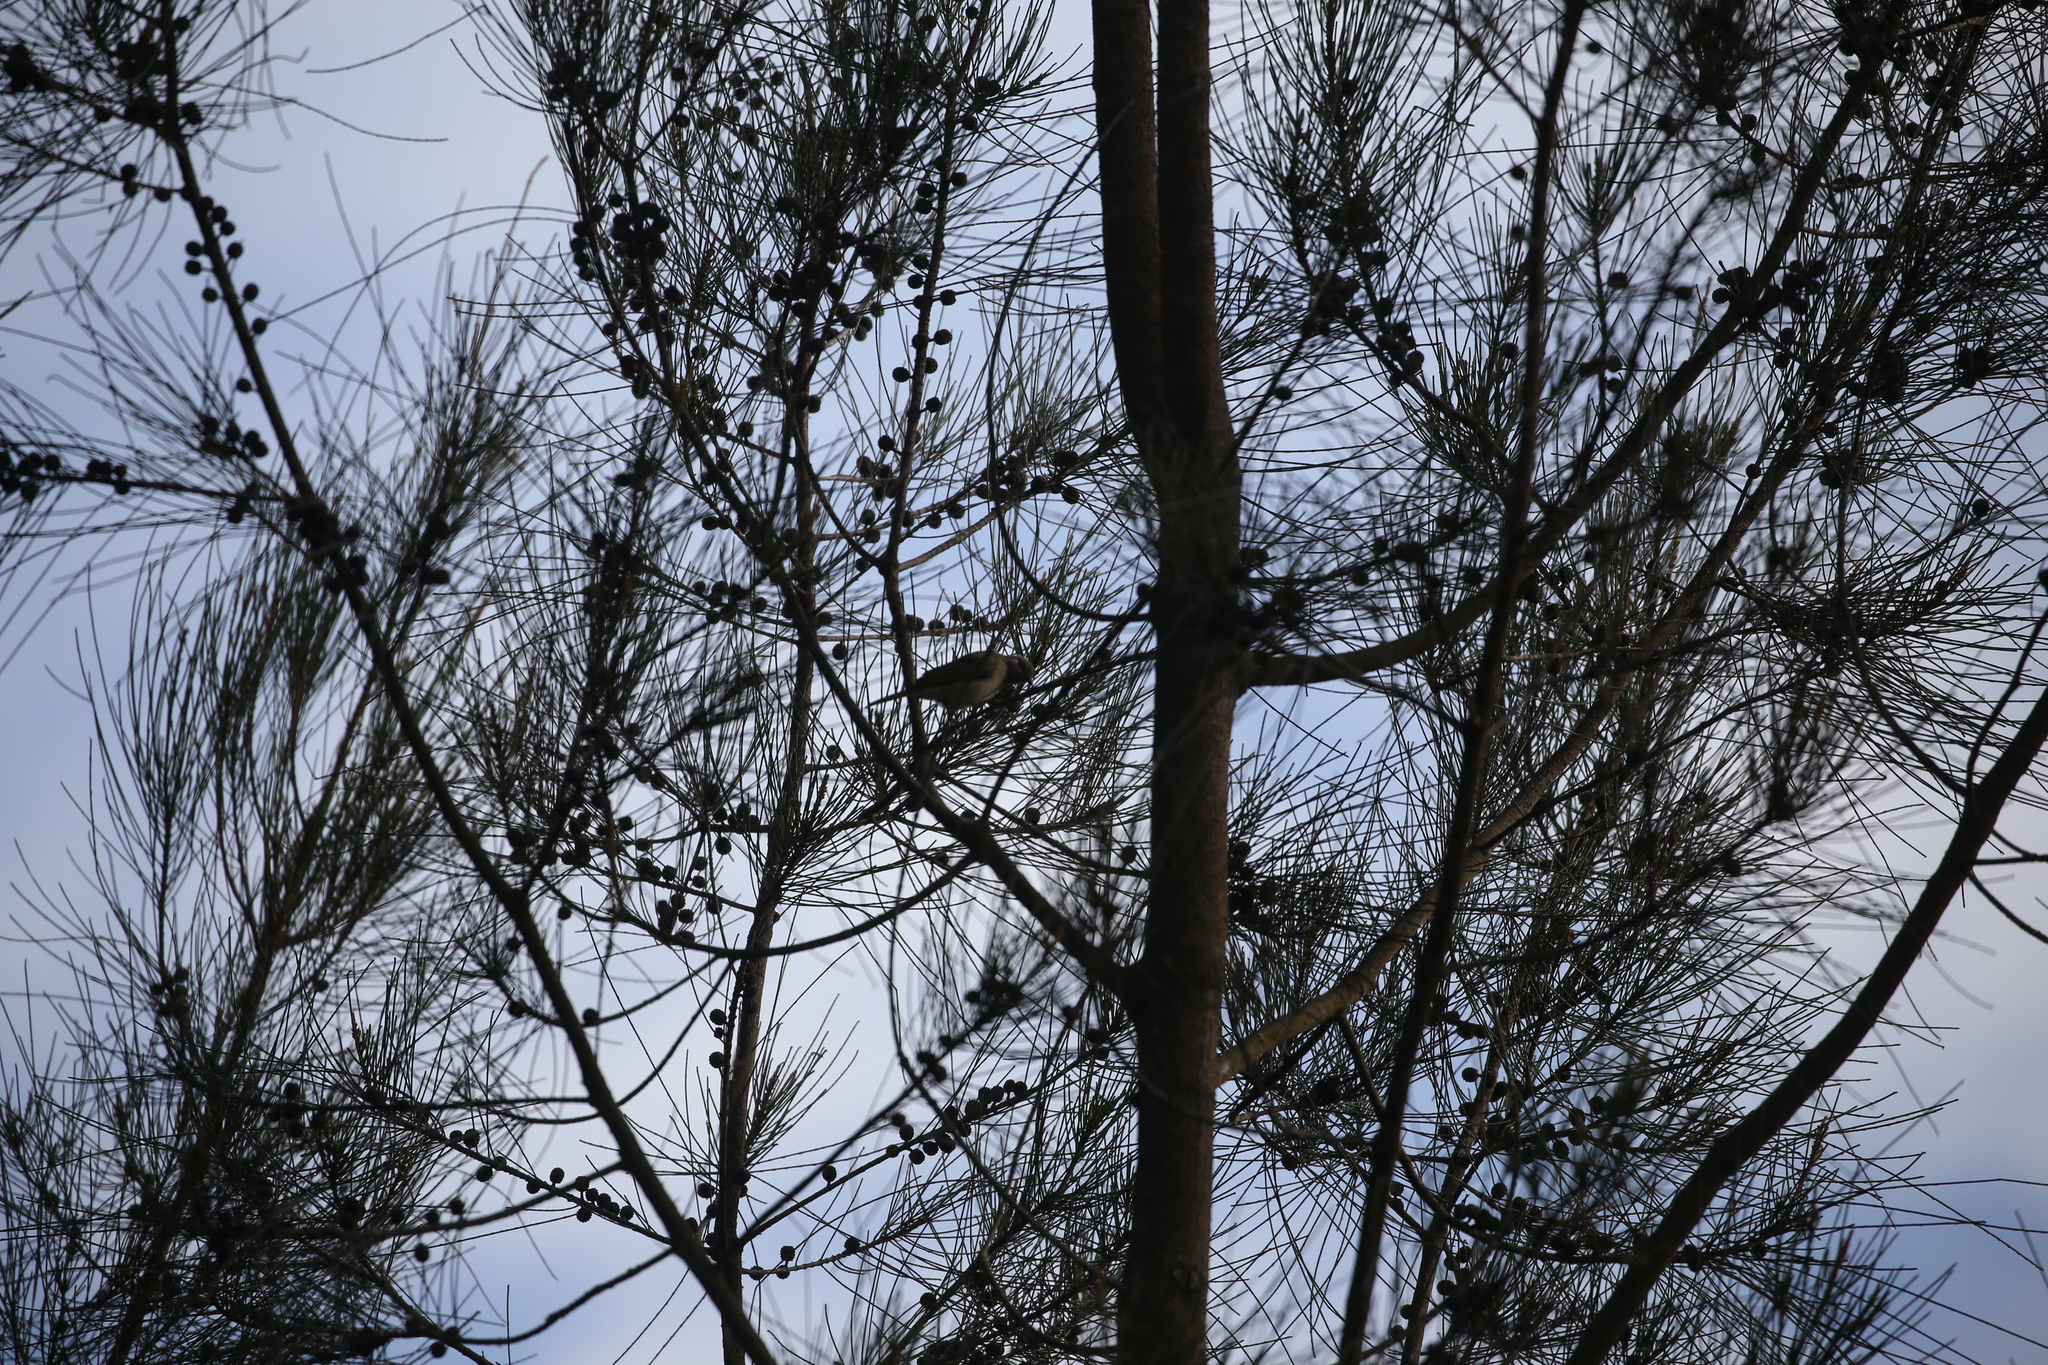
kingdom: Animalia
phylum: Chordata
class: Aves
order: Passeriformes
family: Meliphagidae
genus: Lichmera
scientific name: Lichmera indistincta
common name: Brown honeyeater
